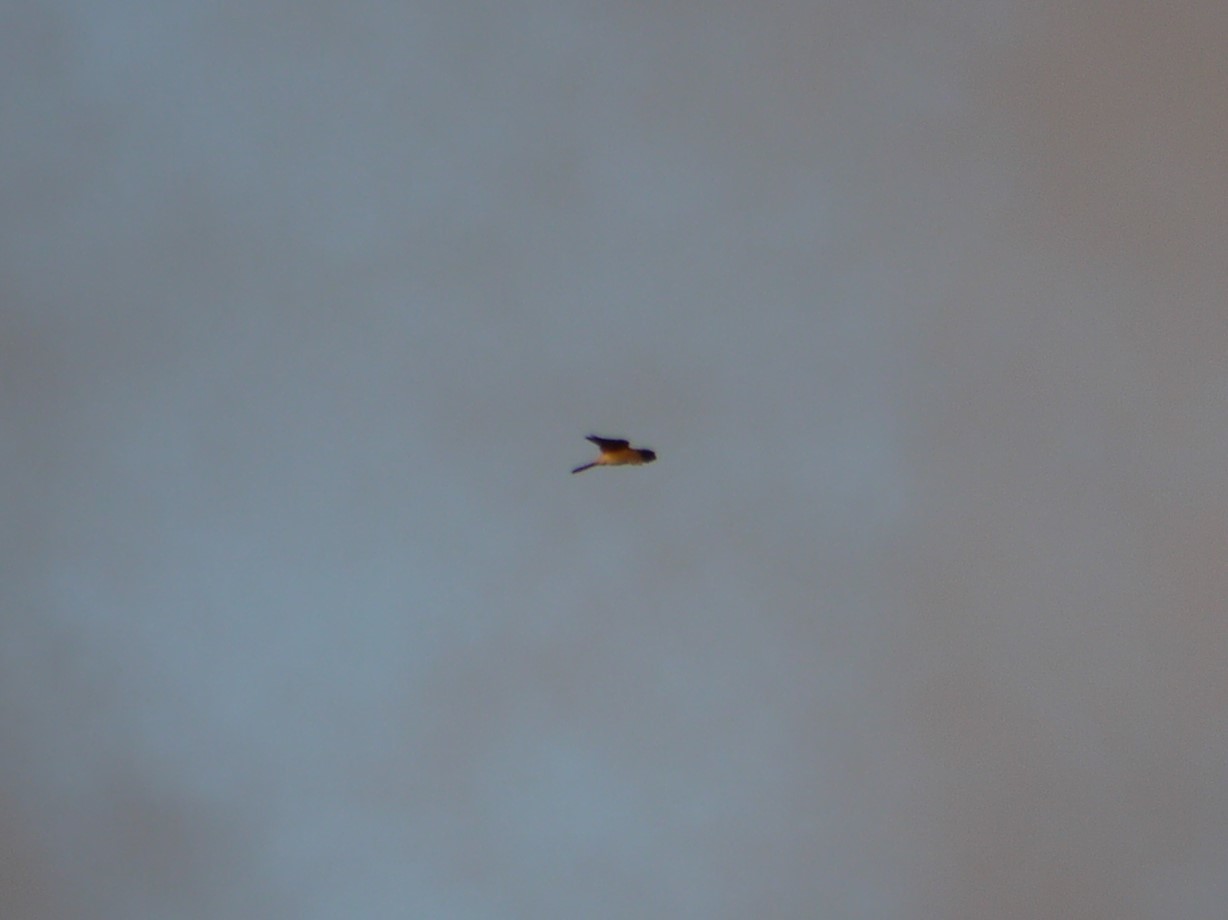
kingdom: Animalia
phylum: Chordata
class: Aves
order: Falconiformes
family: Falconidae
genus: Falco
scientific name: Falco tinnunculus
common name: Common kestrel
